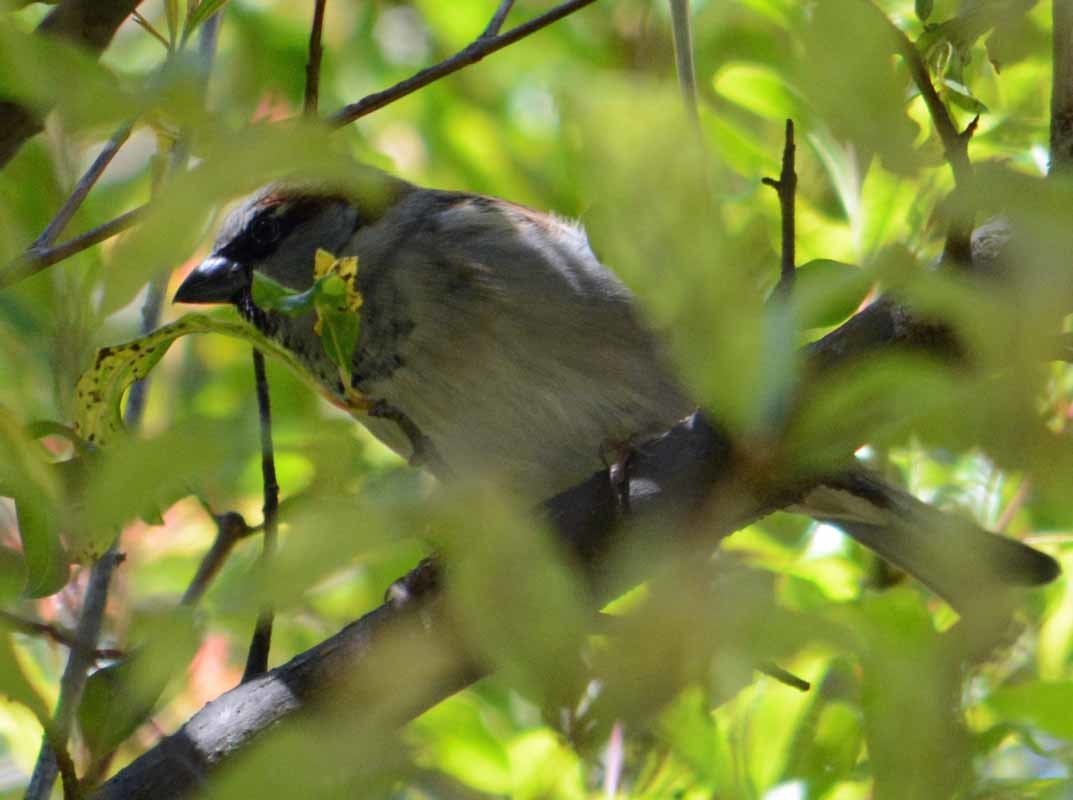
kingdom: Animalia
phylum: Chordata
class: Aves
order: Passeriformes
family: Passeridae
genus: Passer
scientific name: Passer domesticus
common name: House sparrow
